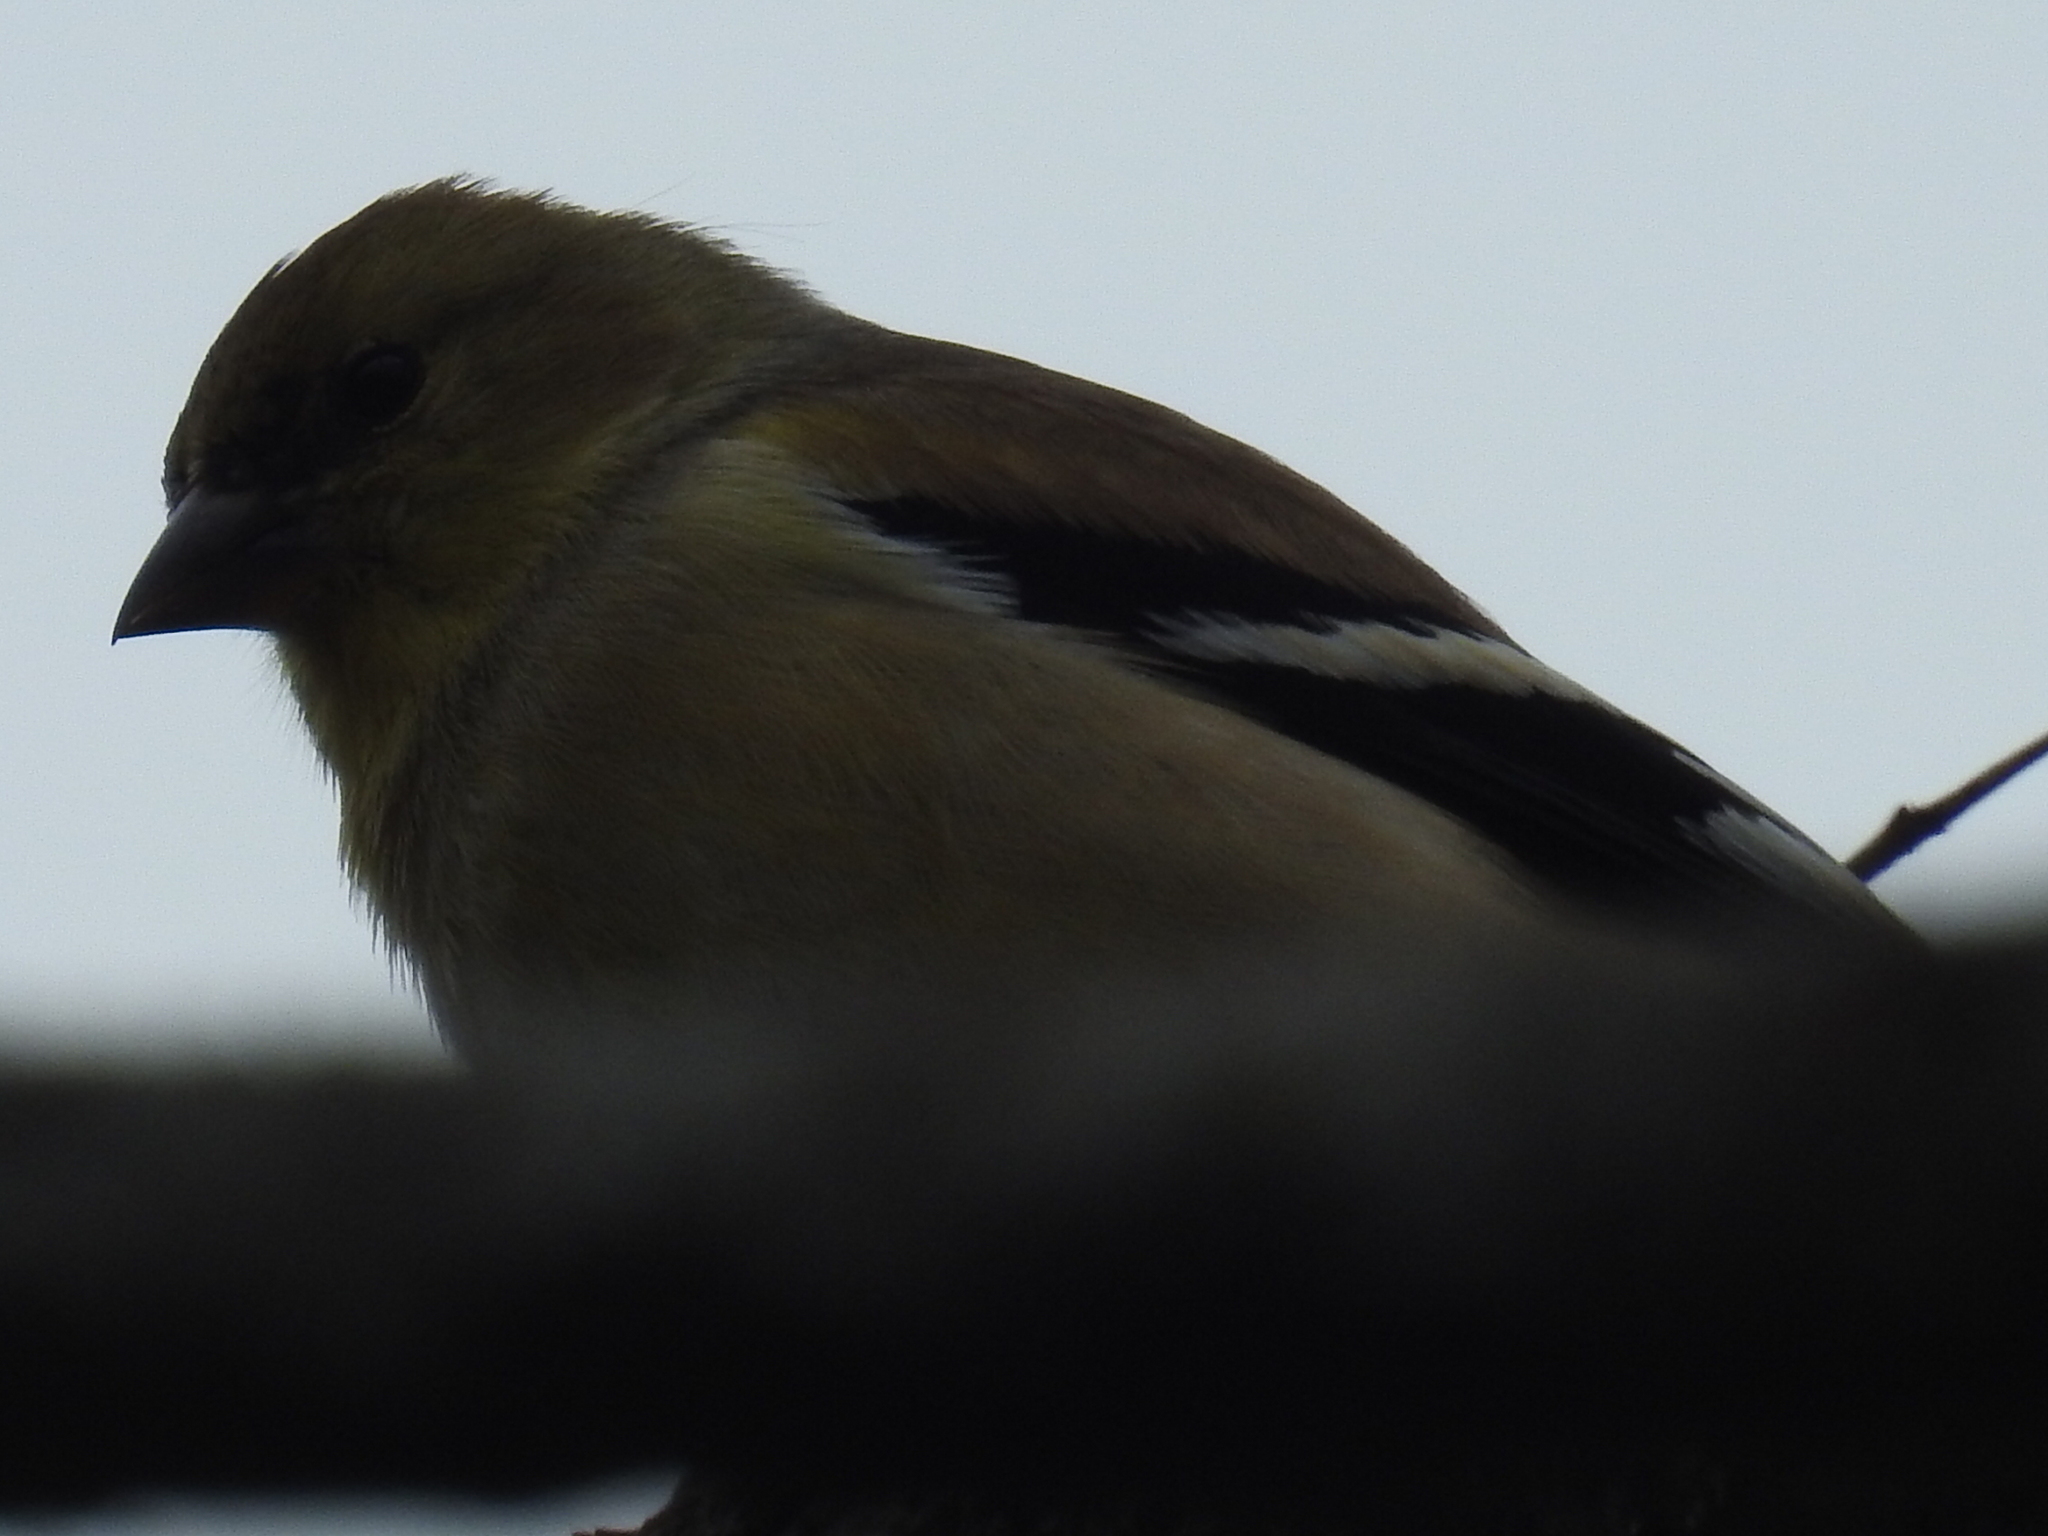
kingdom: Animalia
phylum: Chordata
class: Aves
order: Passeriformes
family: Fringillidae
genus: Spinus
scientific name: Spinus tristis
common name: American goldfinch
